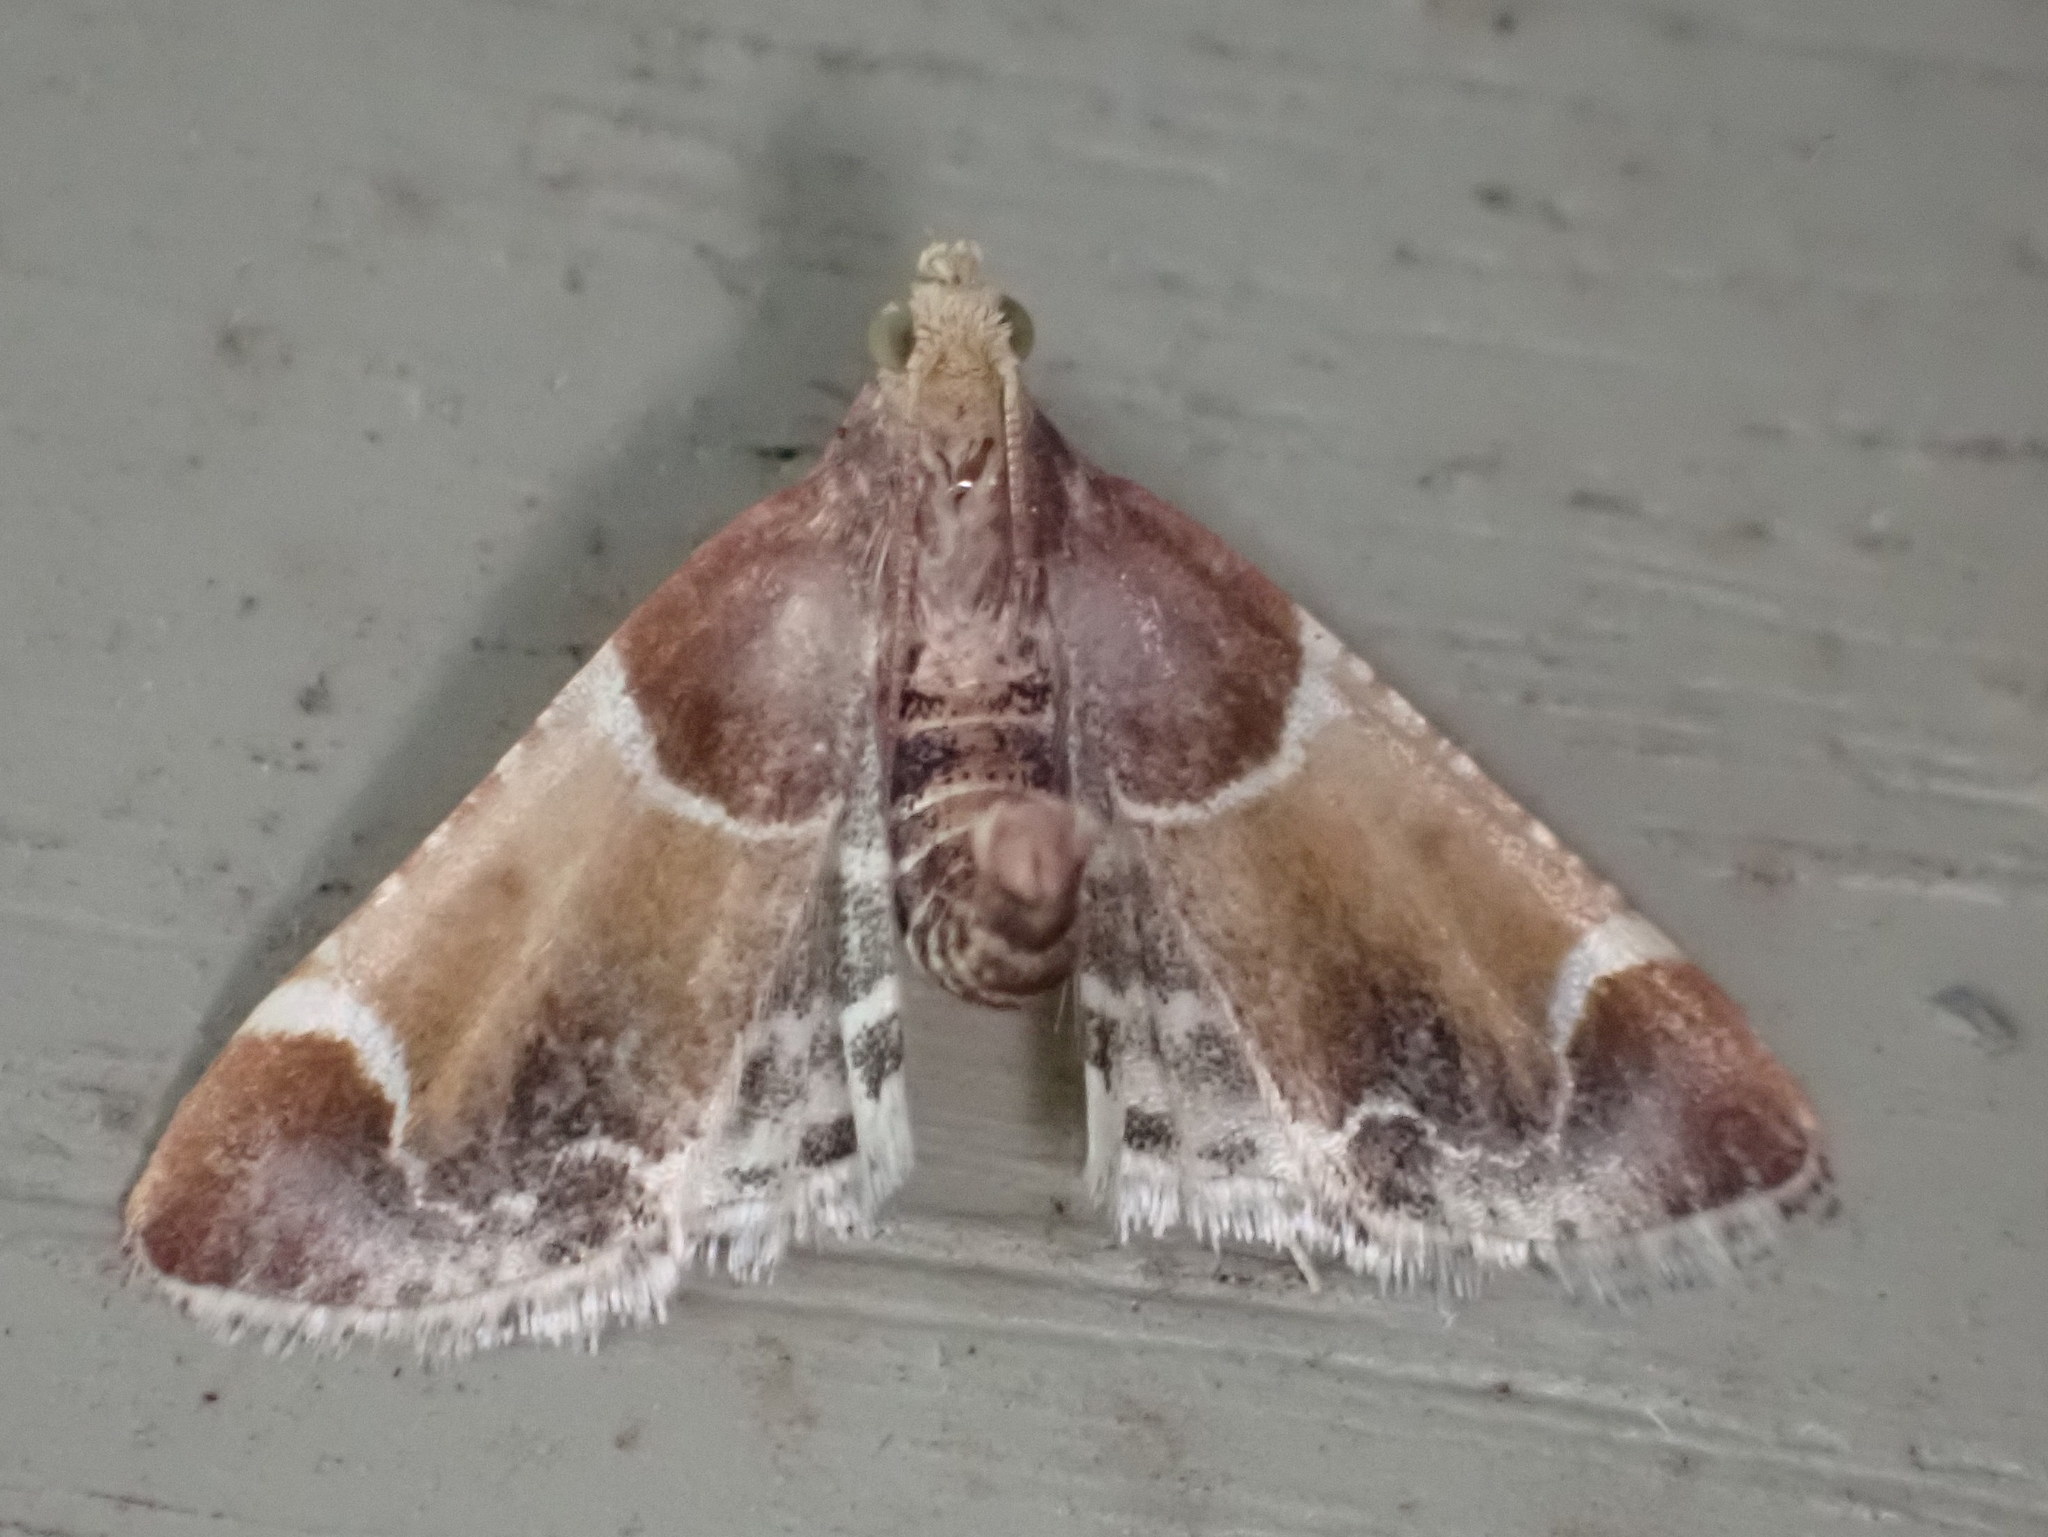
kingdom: Animalia
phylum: Arthropoda
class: Insecta
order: Lepidoptera
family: Pyralidae
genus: Pyralis
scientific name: Pyralis farinalis
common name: Meal moth
